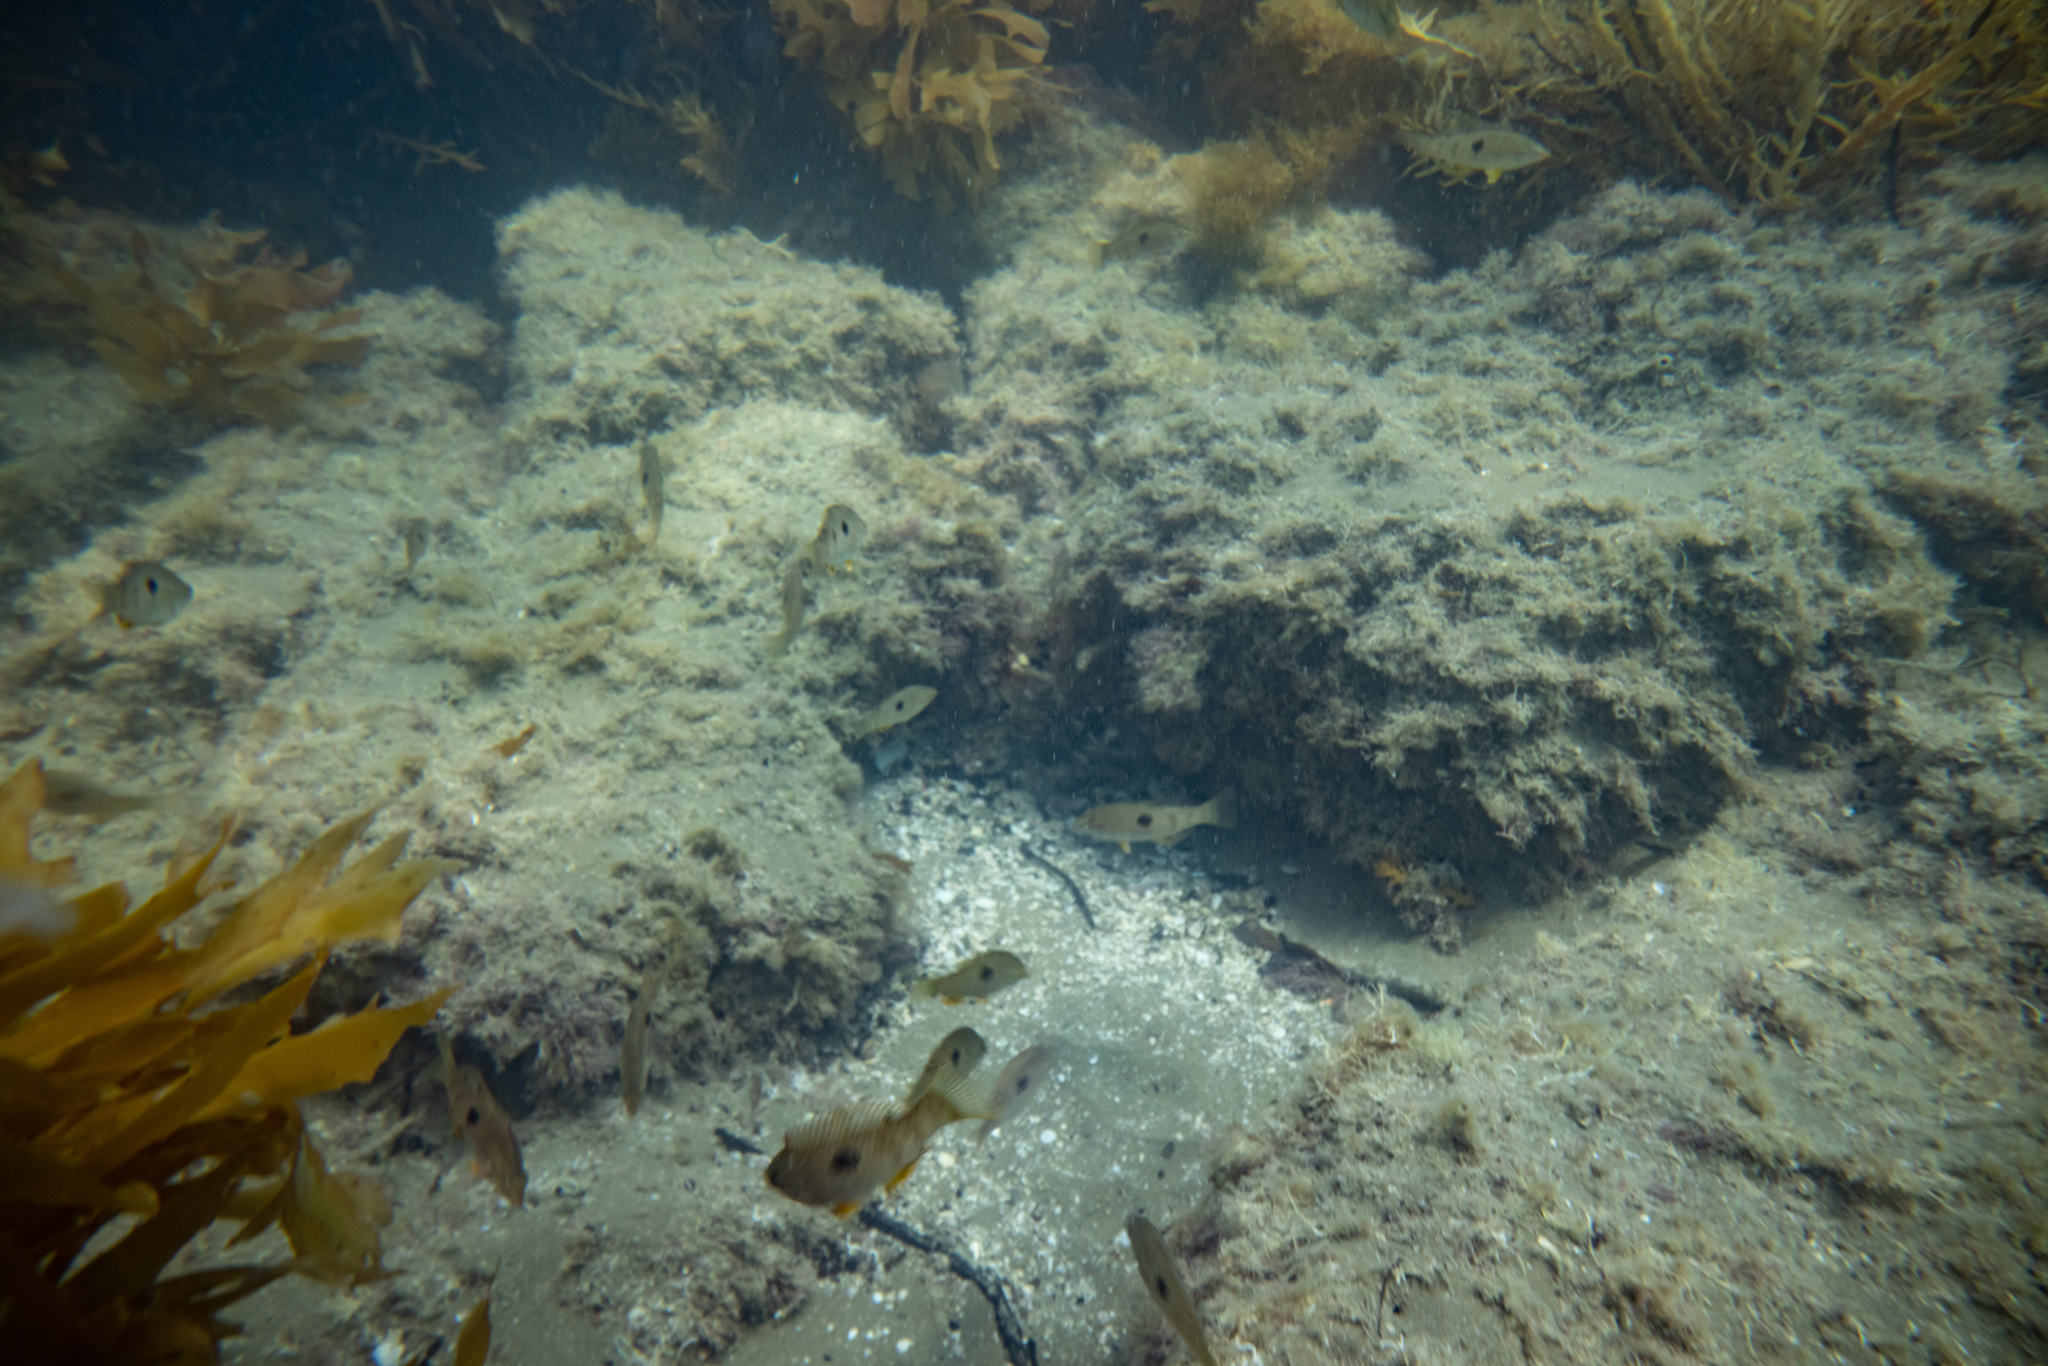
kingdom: Animalia
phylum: Chordata
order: Perciformes
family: Labridae
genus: Notolabrus
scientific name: Notolabrus celidotus
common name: Spotty
